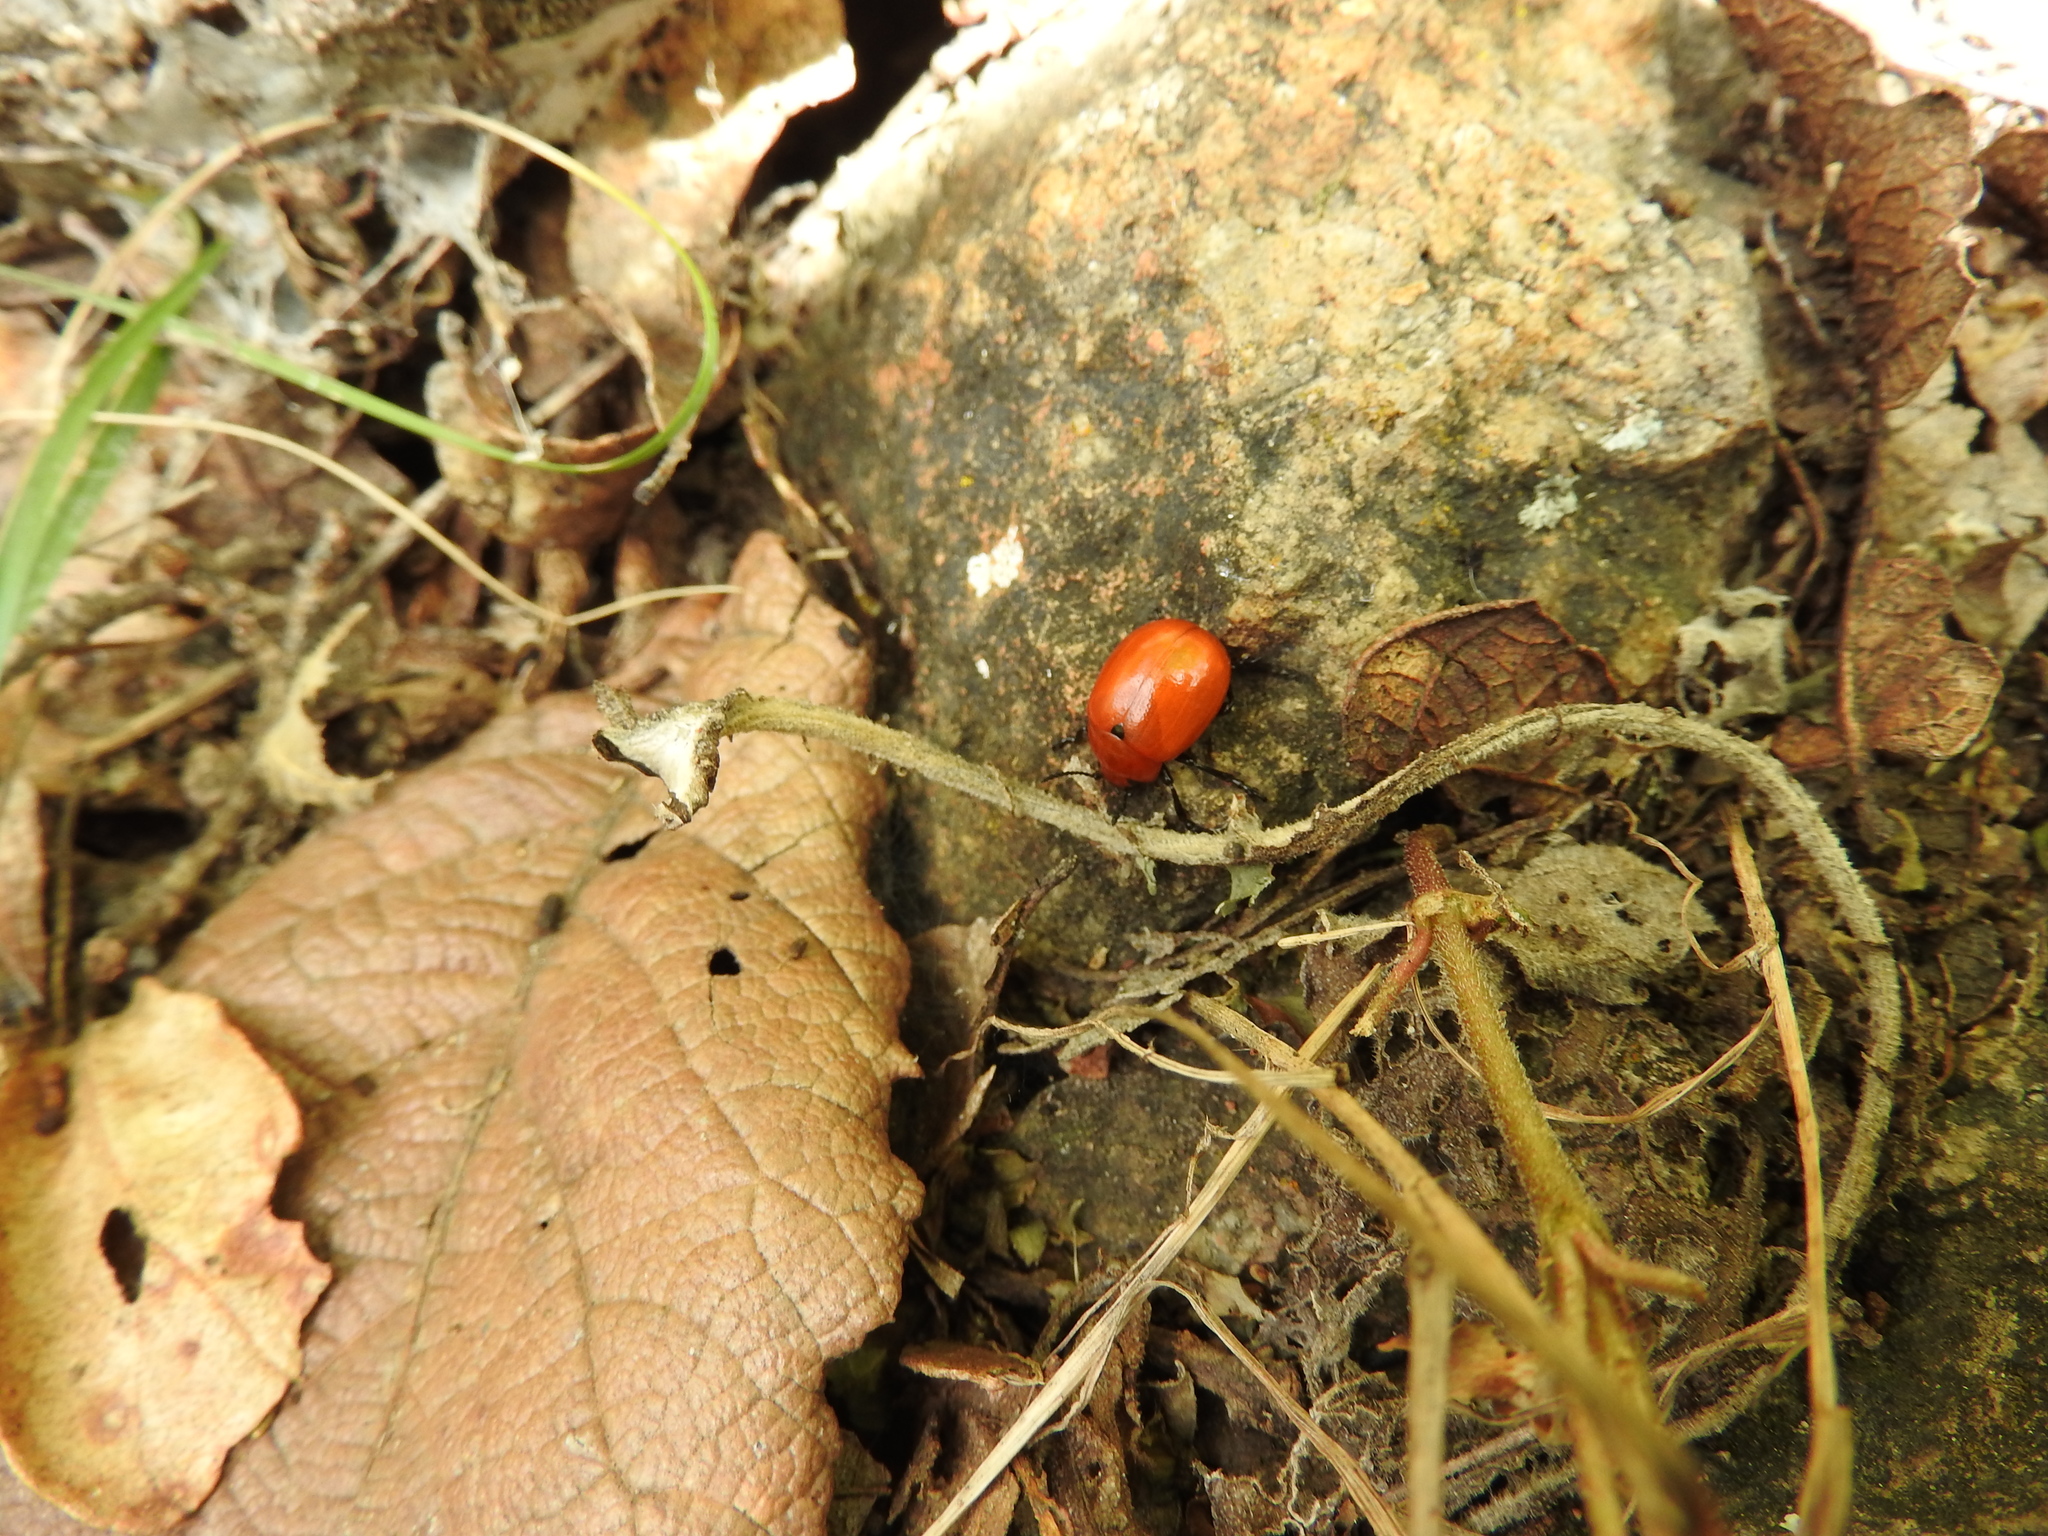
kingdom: Animalia
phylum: Arthropoda
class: Insecta
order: Coleoptera
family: Chrysomelidae
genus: Leptinotarsa
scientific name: Leptinotarsa rubiginosa
